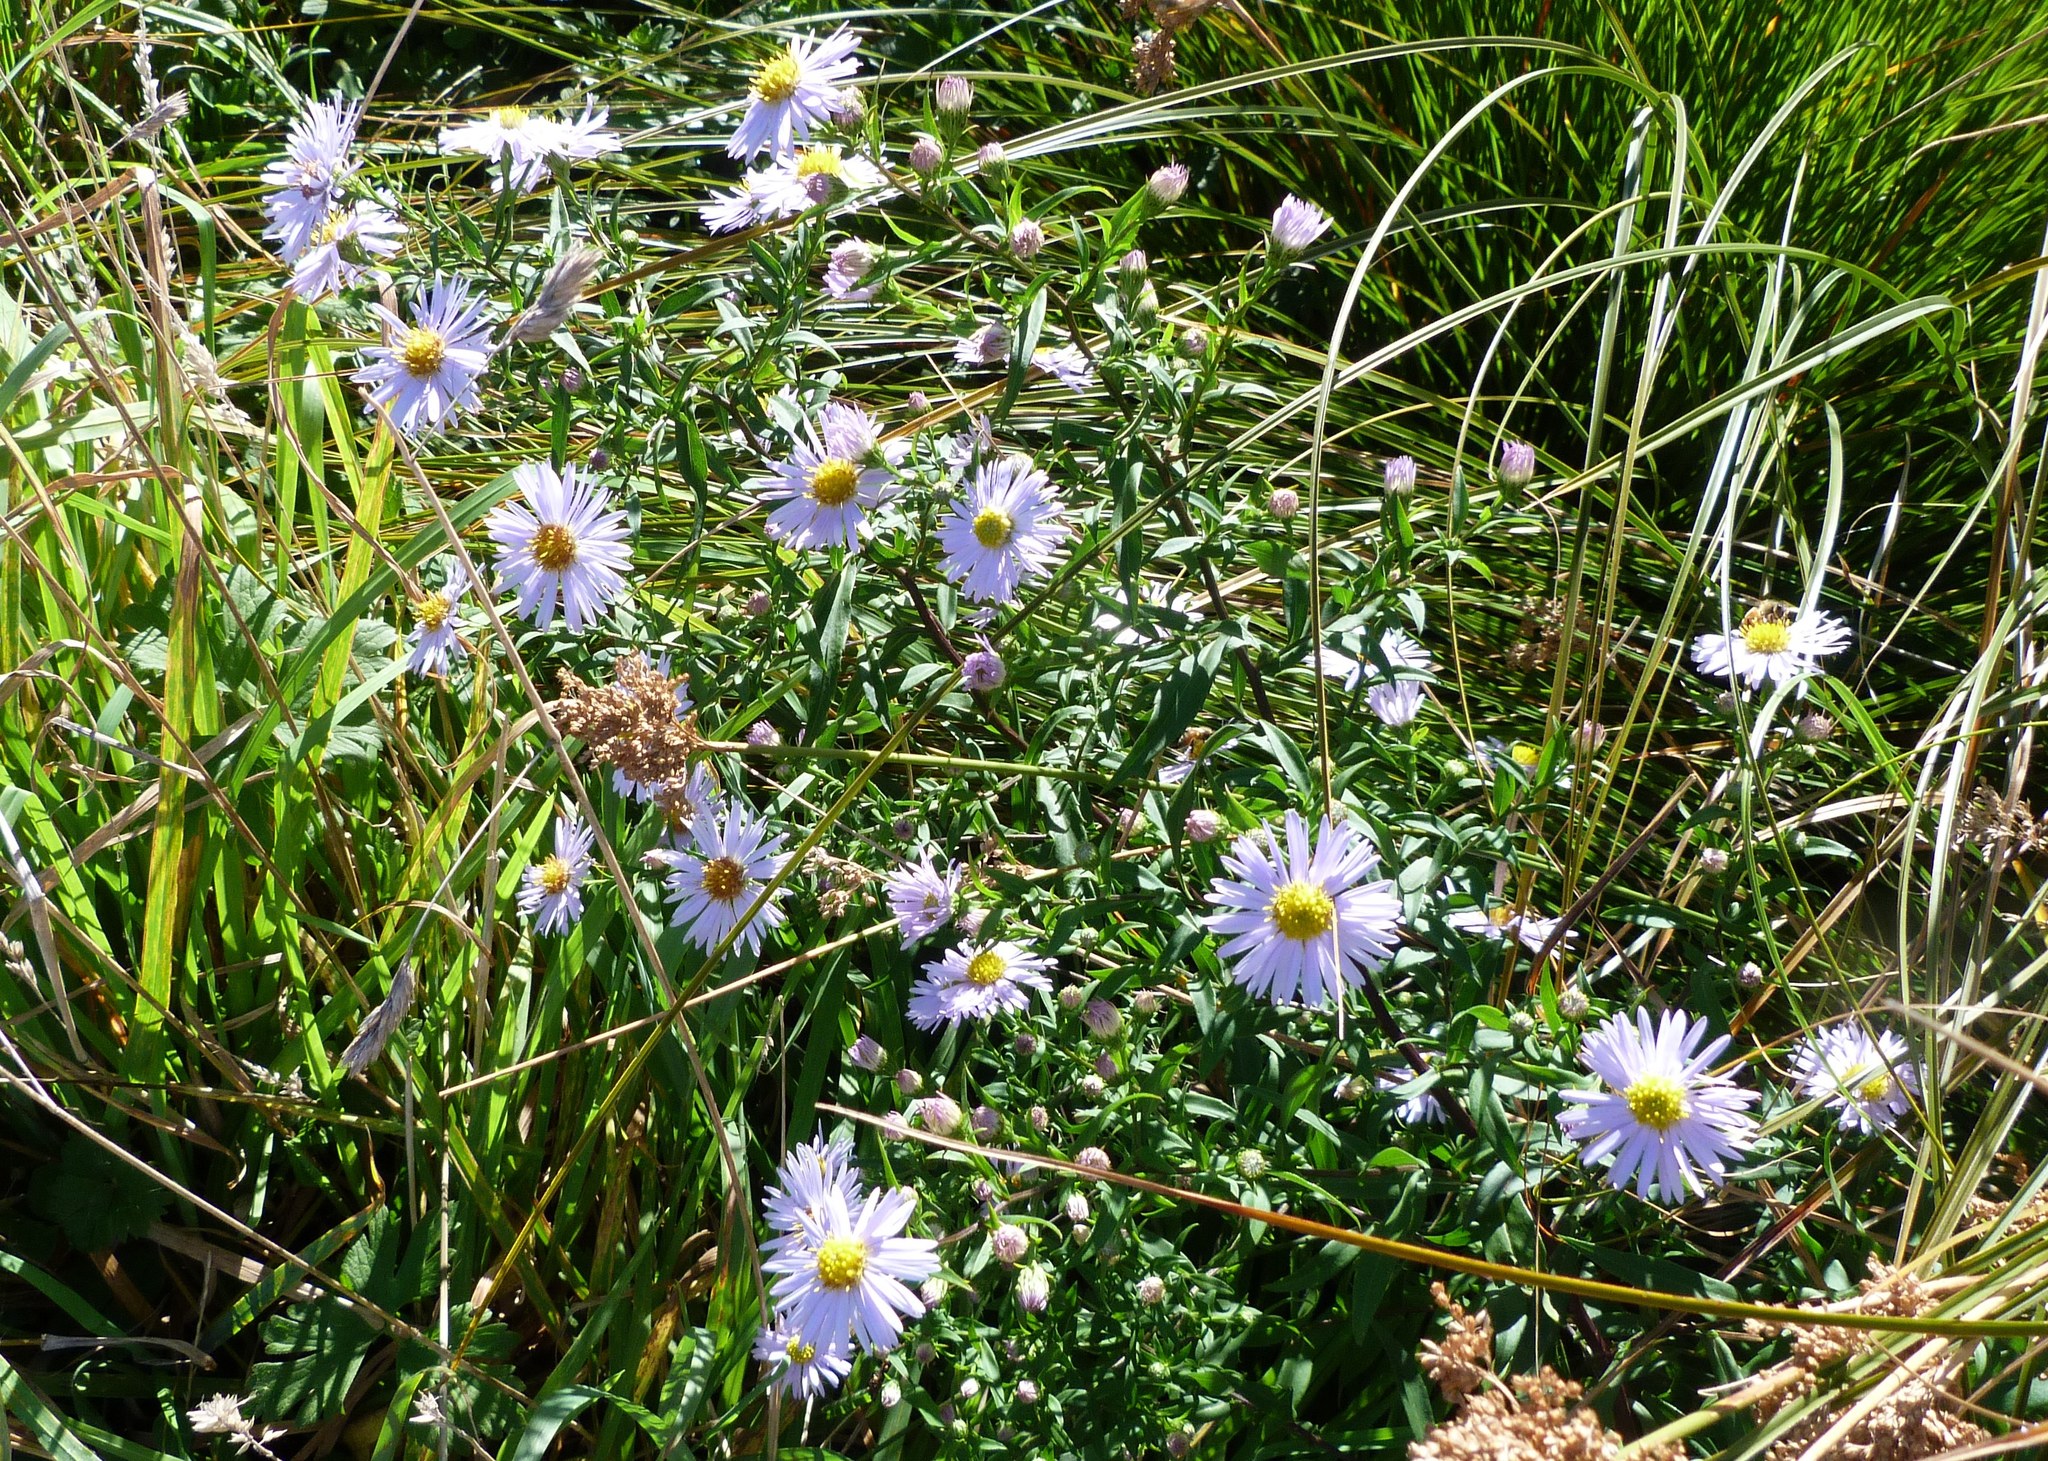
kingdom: Plantae
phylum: Tracheophyta
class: Magnoliopsida
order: Asterales
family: Asteraceae
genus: Symphyotrichum
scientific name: Symphyotrichum novi-belgii
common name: Michaelmas daisy
